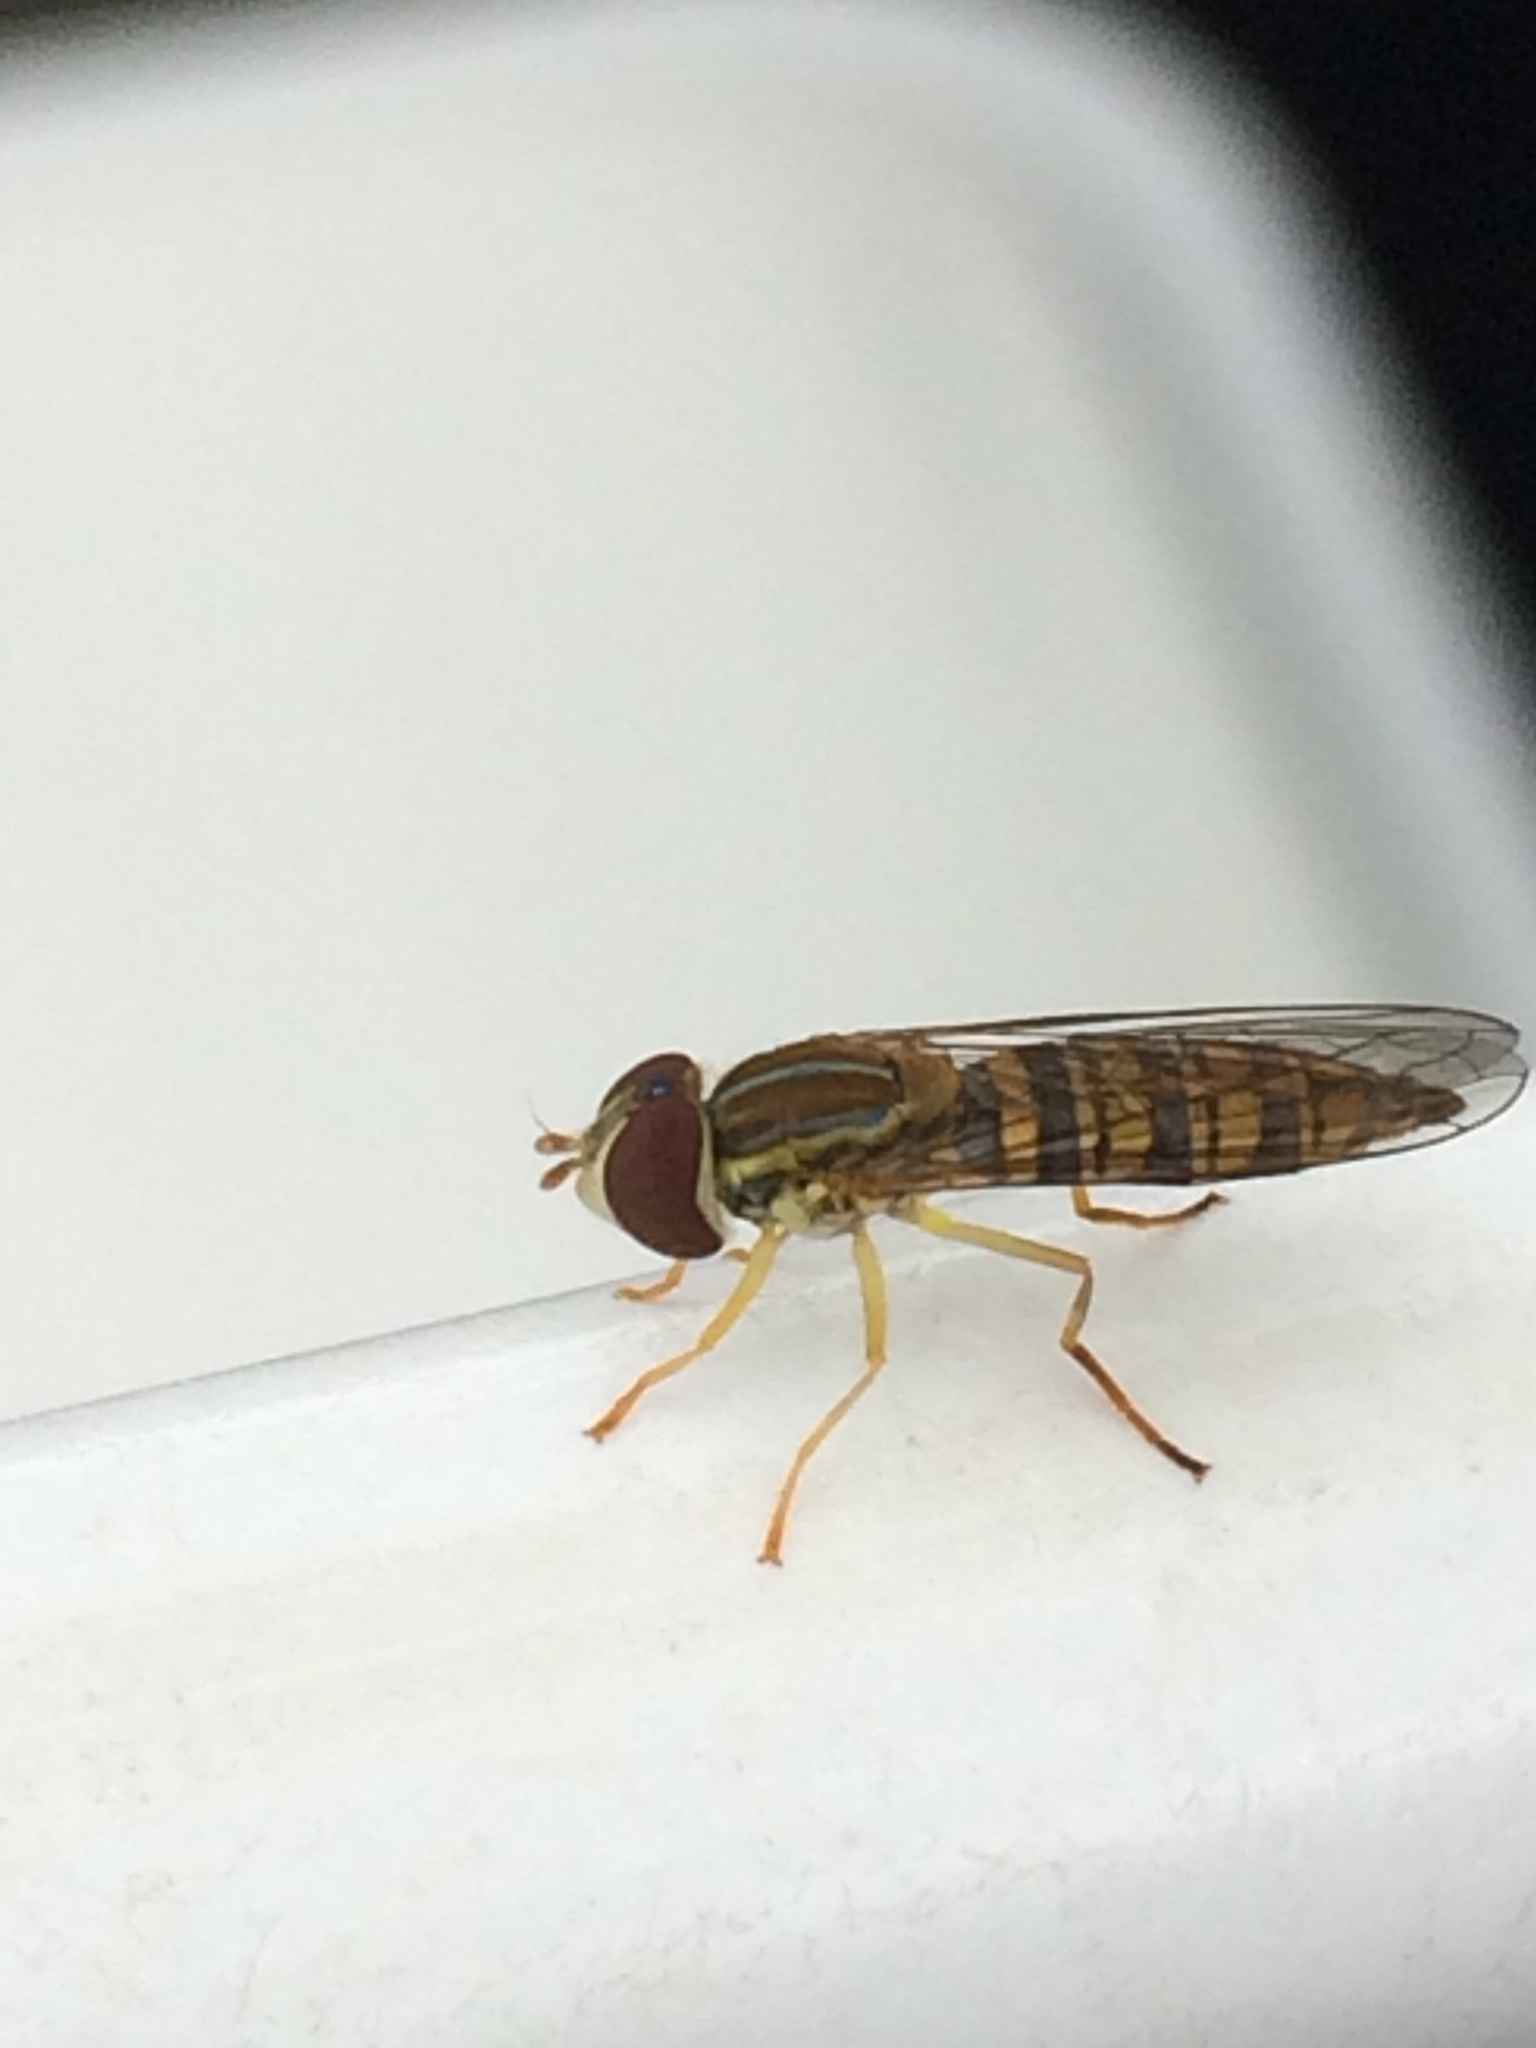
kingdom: Animalia
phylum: Arthropoda
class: Insecta
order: Diptera
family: Syrphidae
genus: Toxomerus
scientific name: Toxomerus politus
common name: Maize calligrapher
